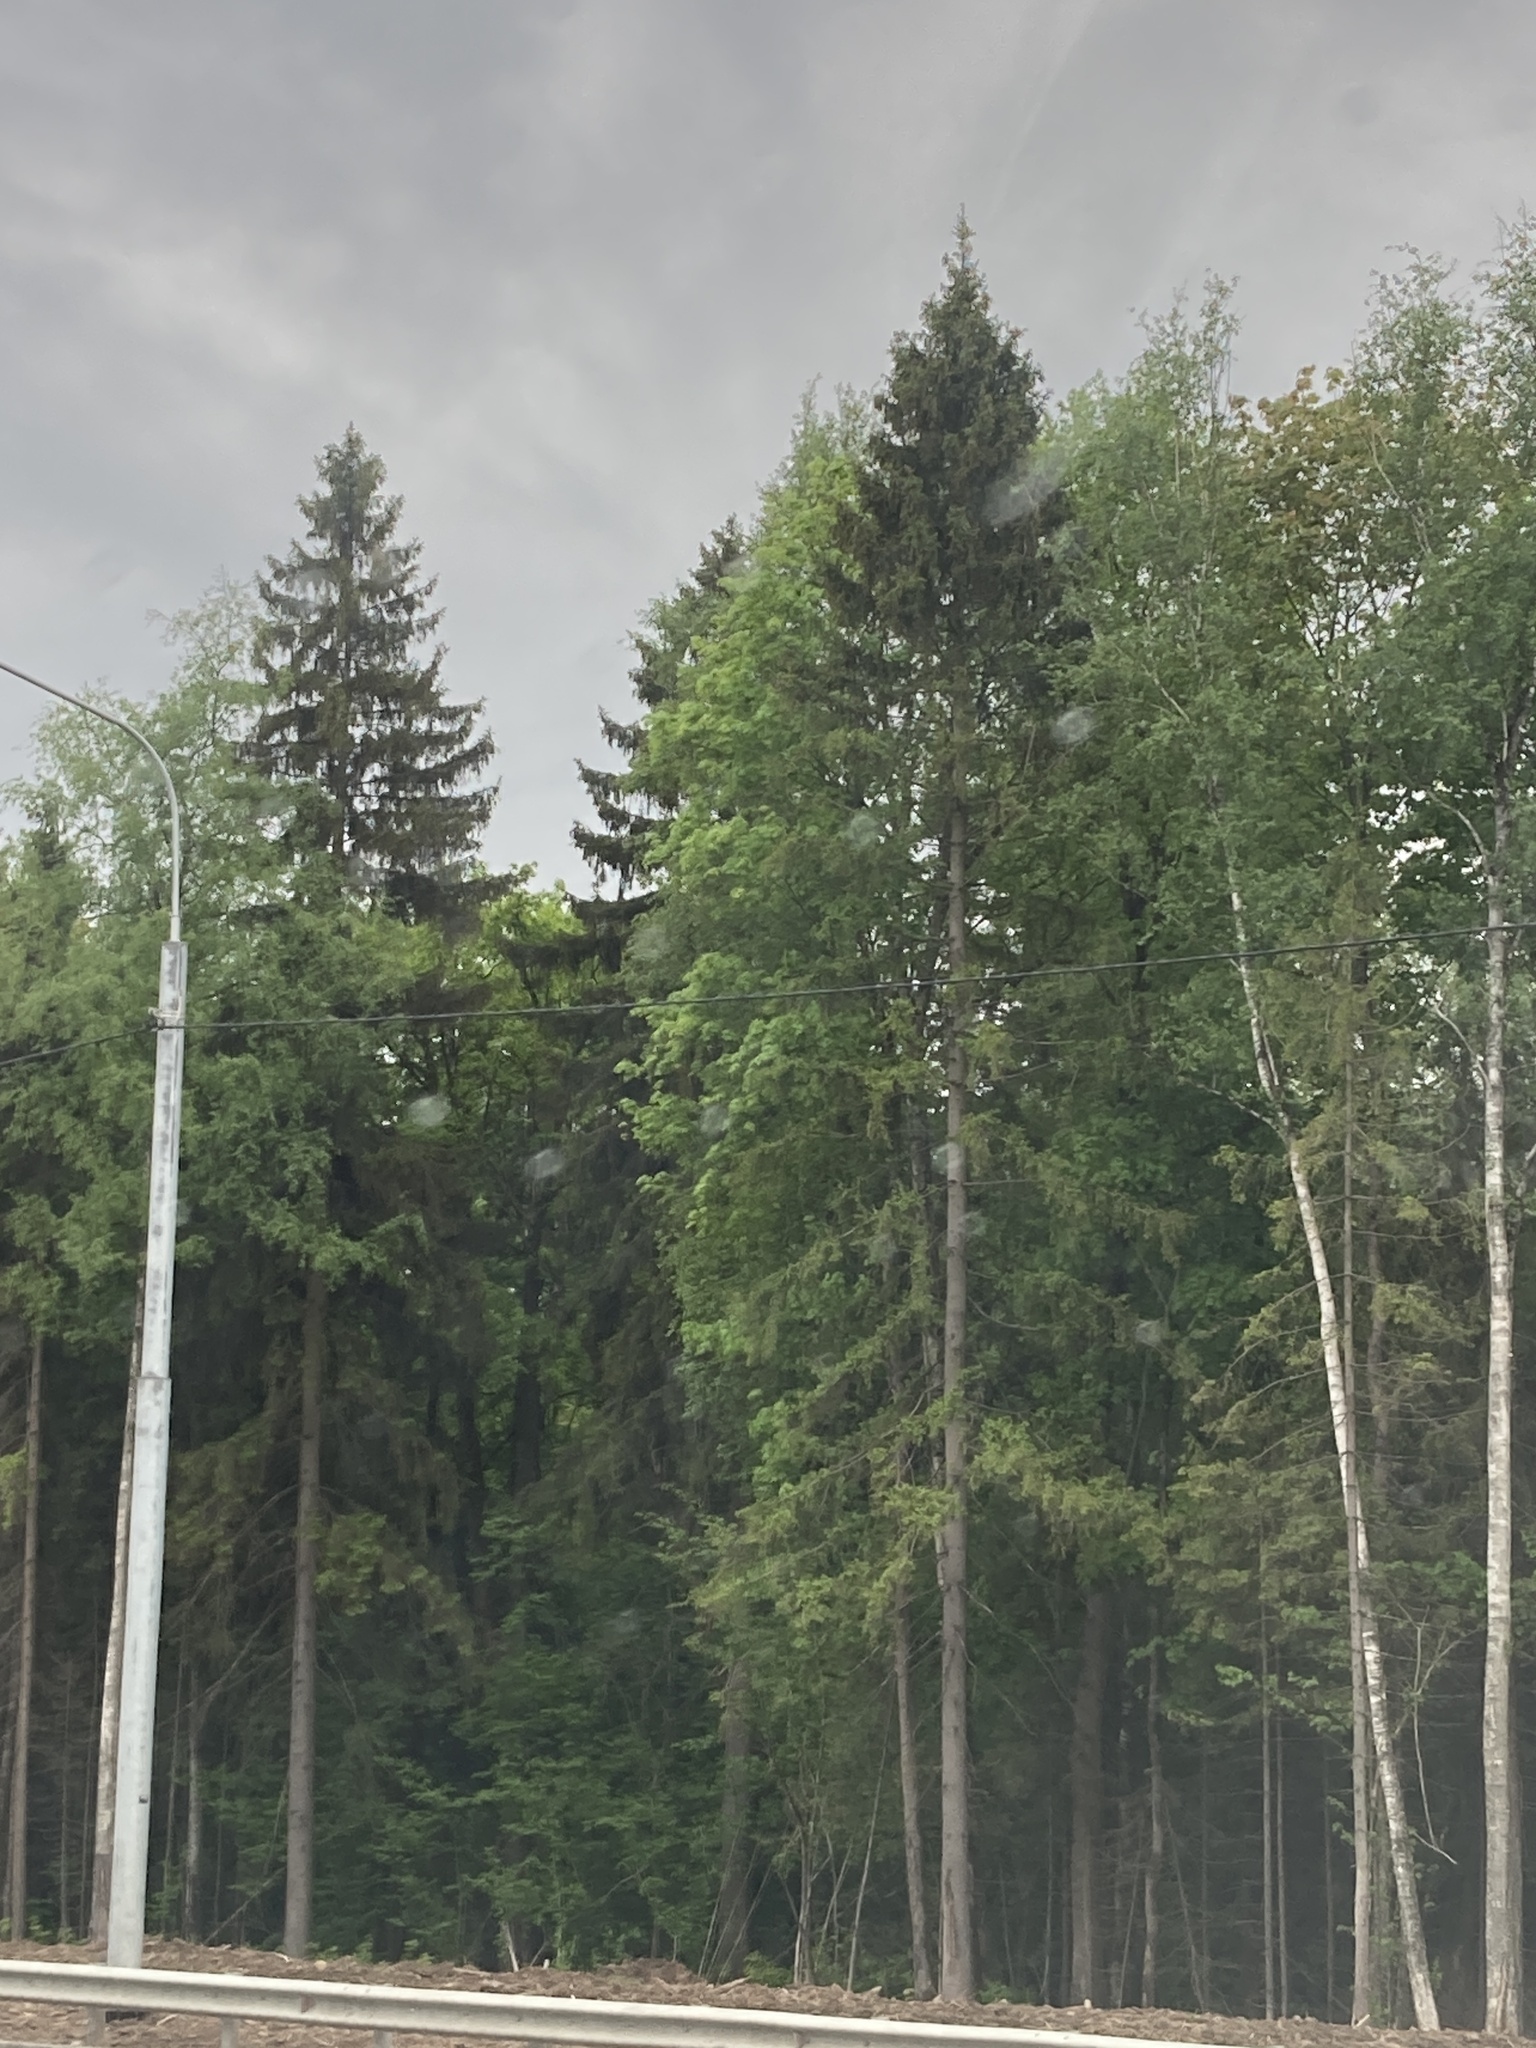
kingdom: Plantae
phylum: Tracheophyta
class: Pinopsida
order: Pinales
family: Pinaceae
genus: Picea
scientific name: Picea abies
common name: Norway spruce
